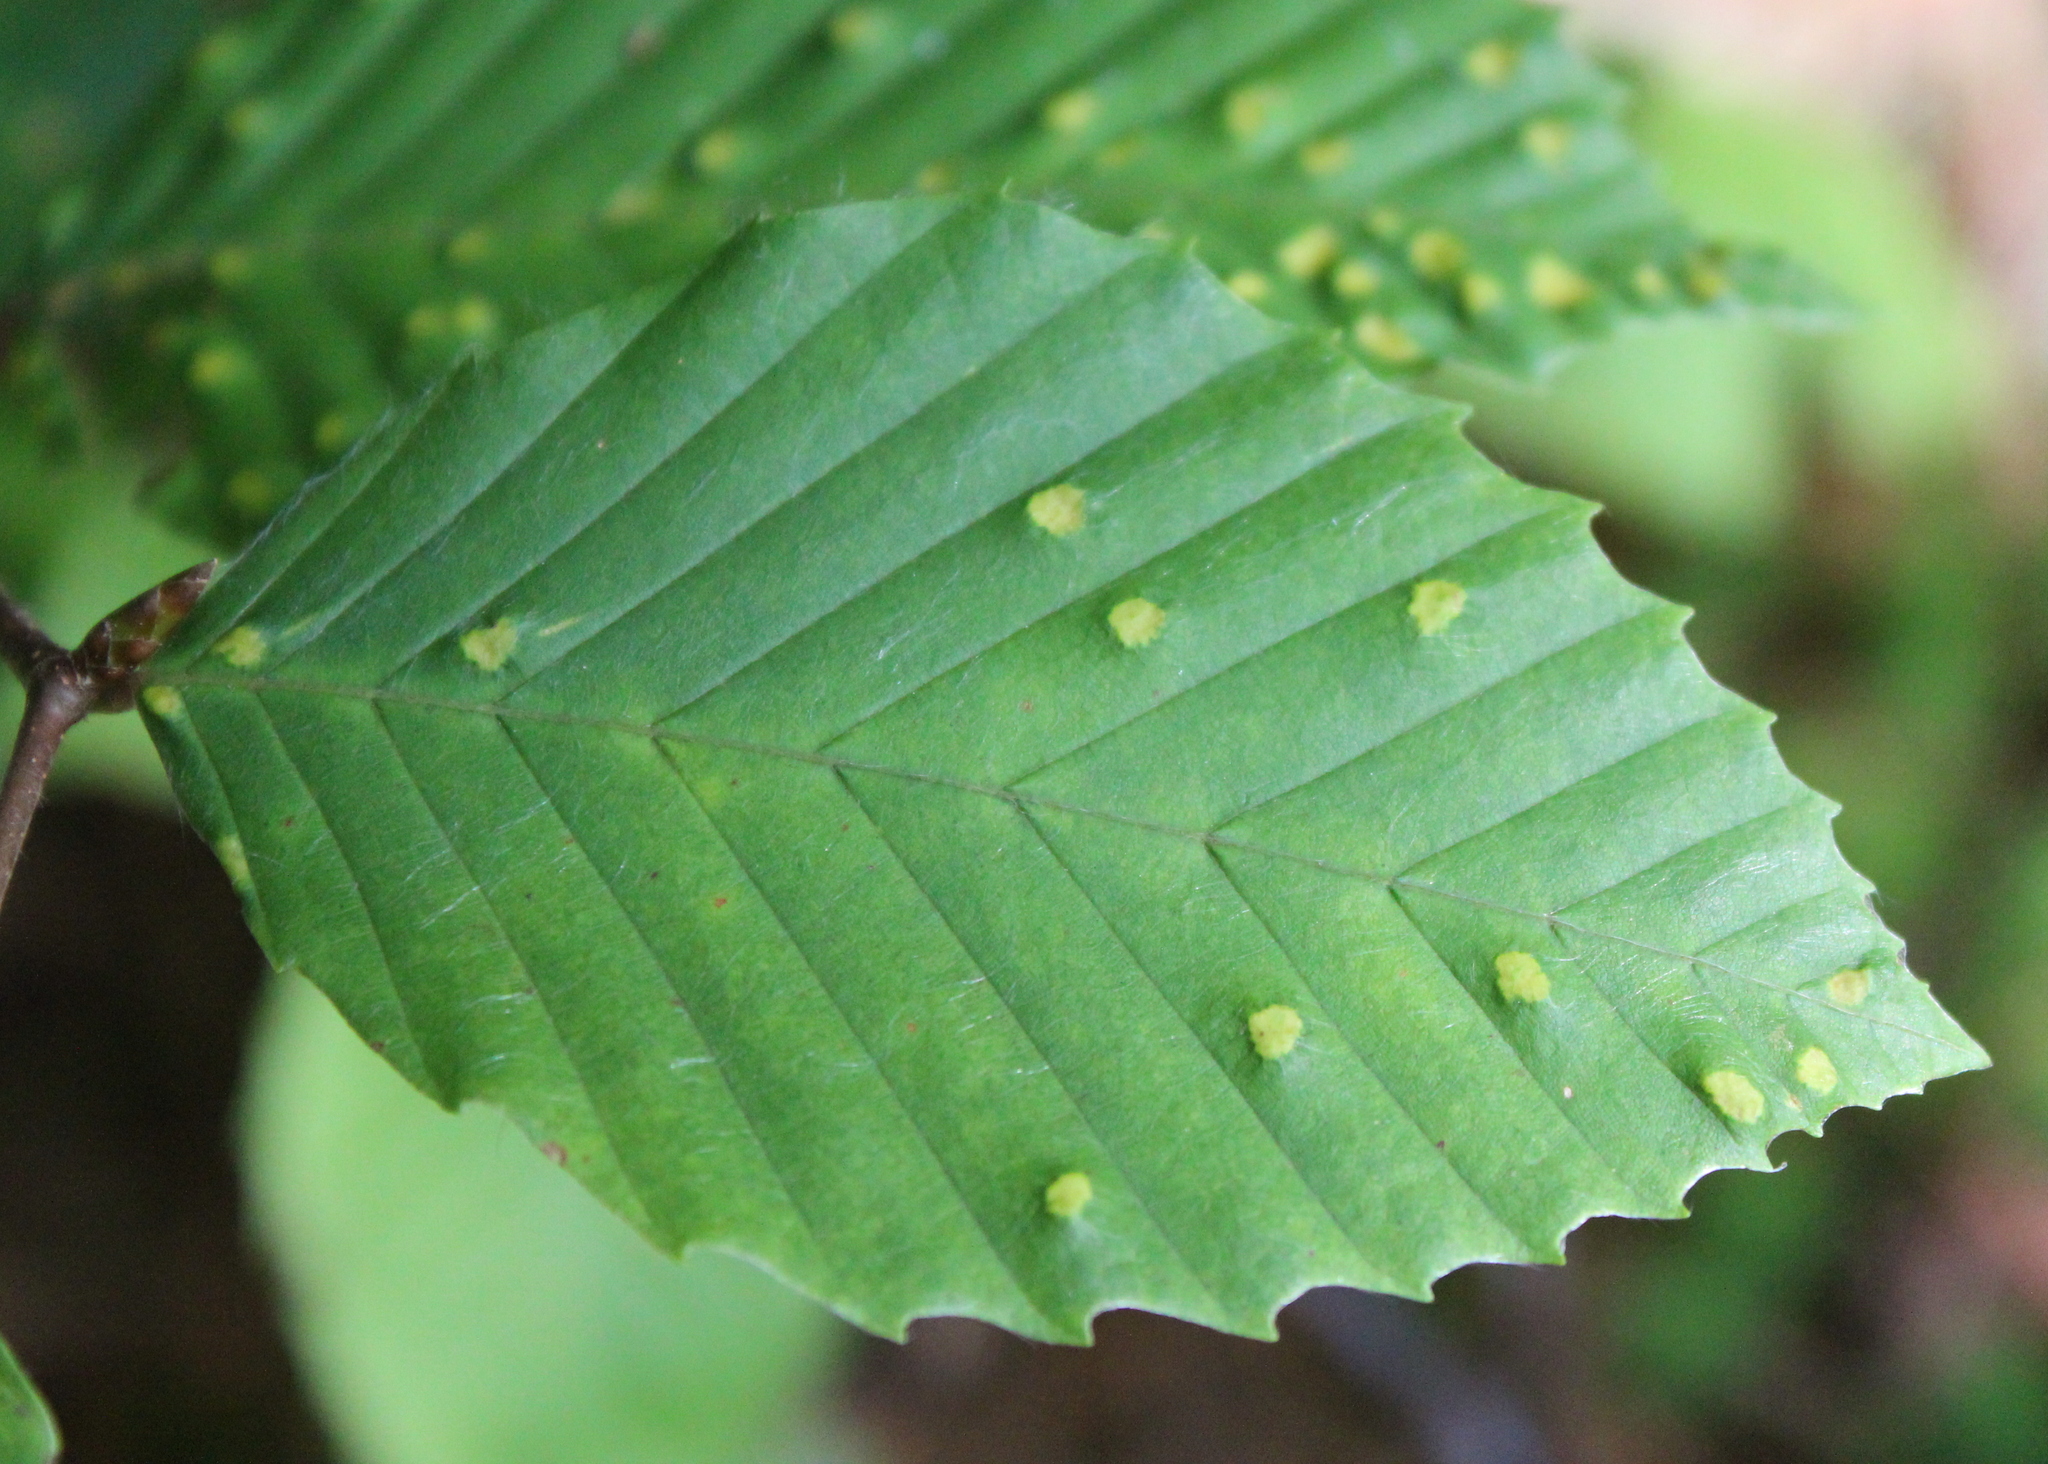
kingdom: Animalia
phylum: Arthropoda
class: Arachnida
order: Trombidiformes
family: Eriophyidae
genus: Acalitus
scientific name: Acalitus
